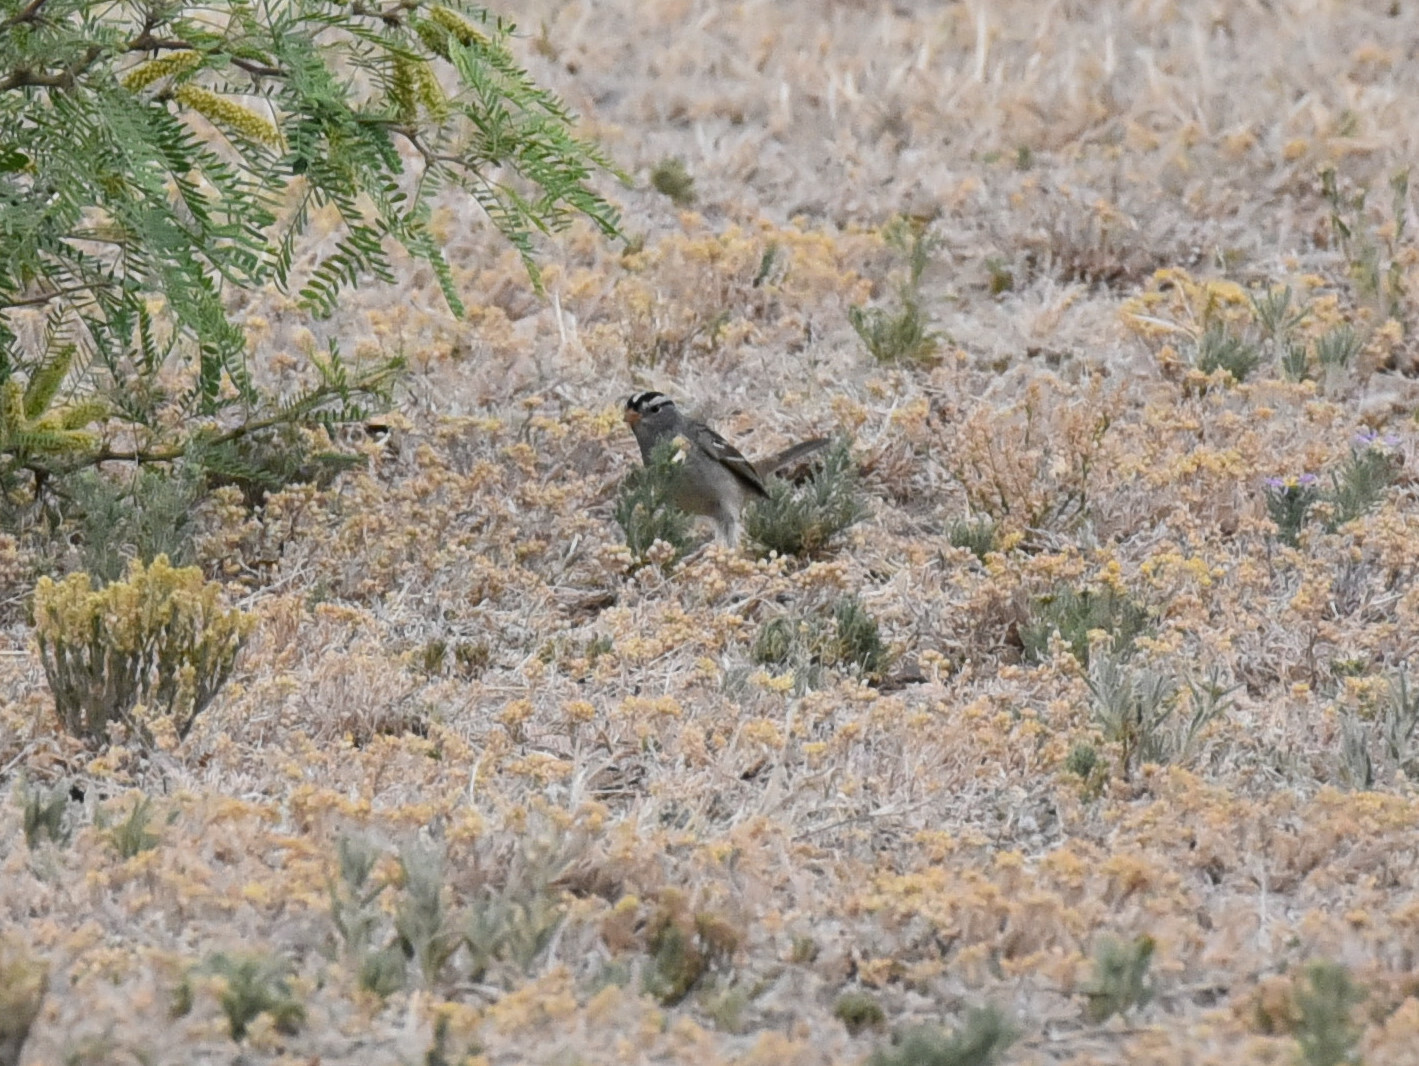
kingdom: Animalia
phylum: Chordata
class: Aves
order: Passeriformes
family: Passerellidae
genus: Zonotrichia
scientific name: Zonotrichia leucophrys
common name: White-crowned sparrow
